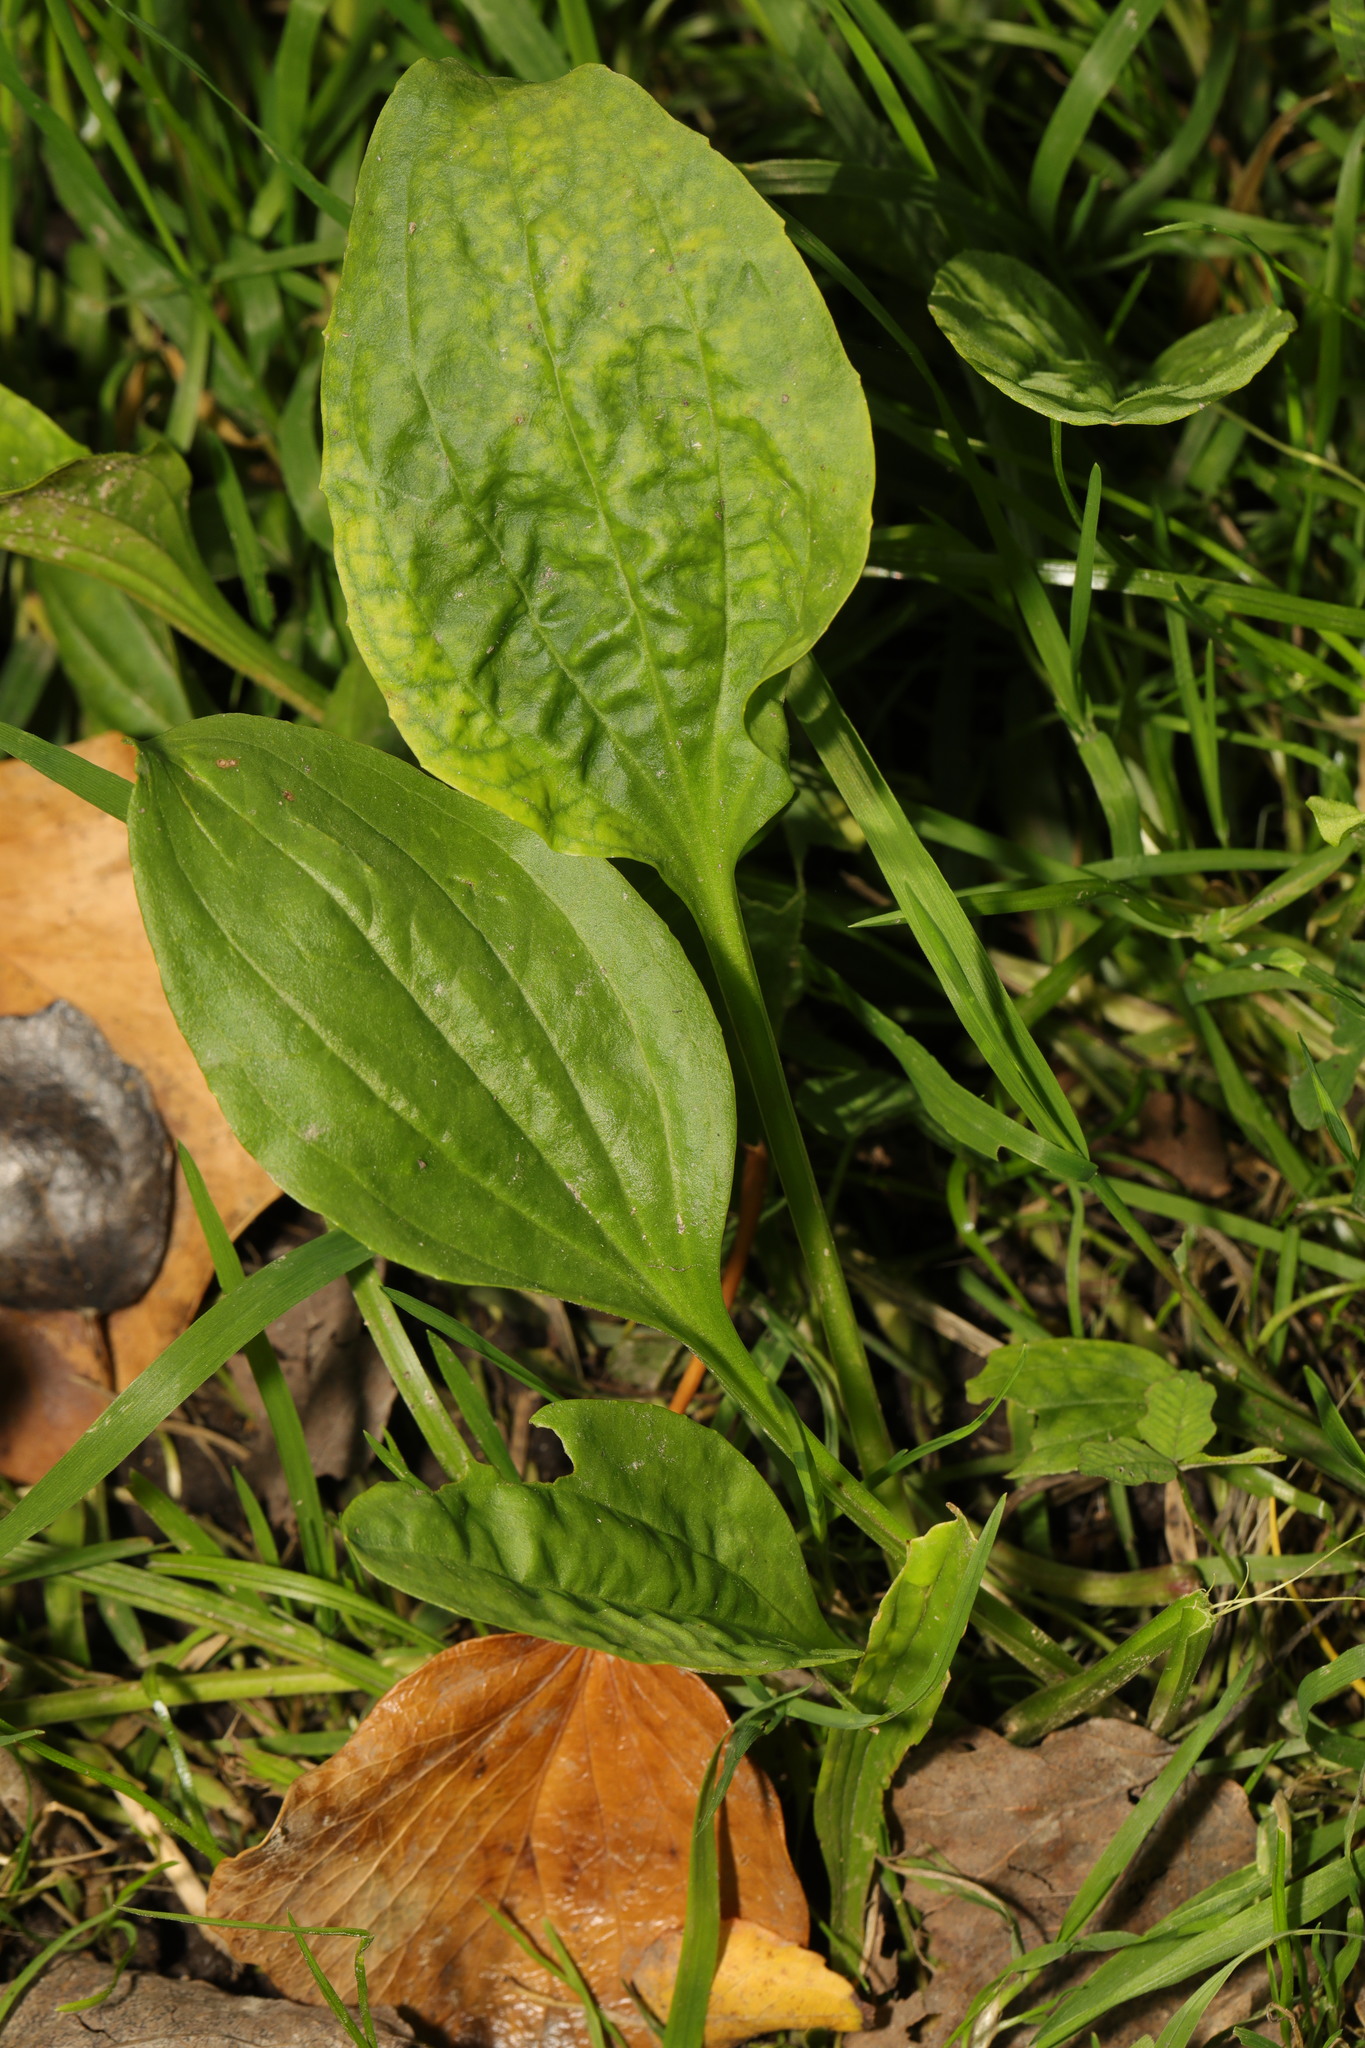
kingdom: Plantae
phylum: Tracheophyta
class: Magnoliopsida
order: Lamiales
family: Plantaginaceae
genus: Plantago
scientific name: Plantago major
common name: Common plantain
